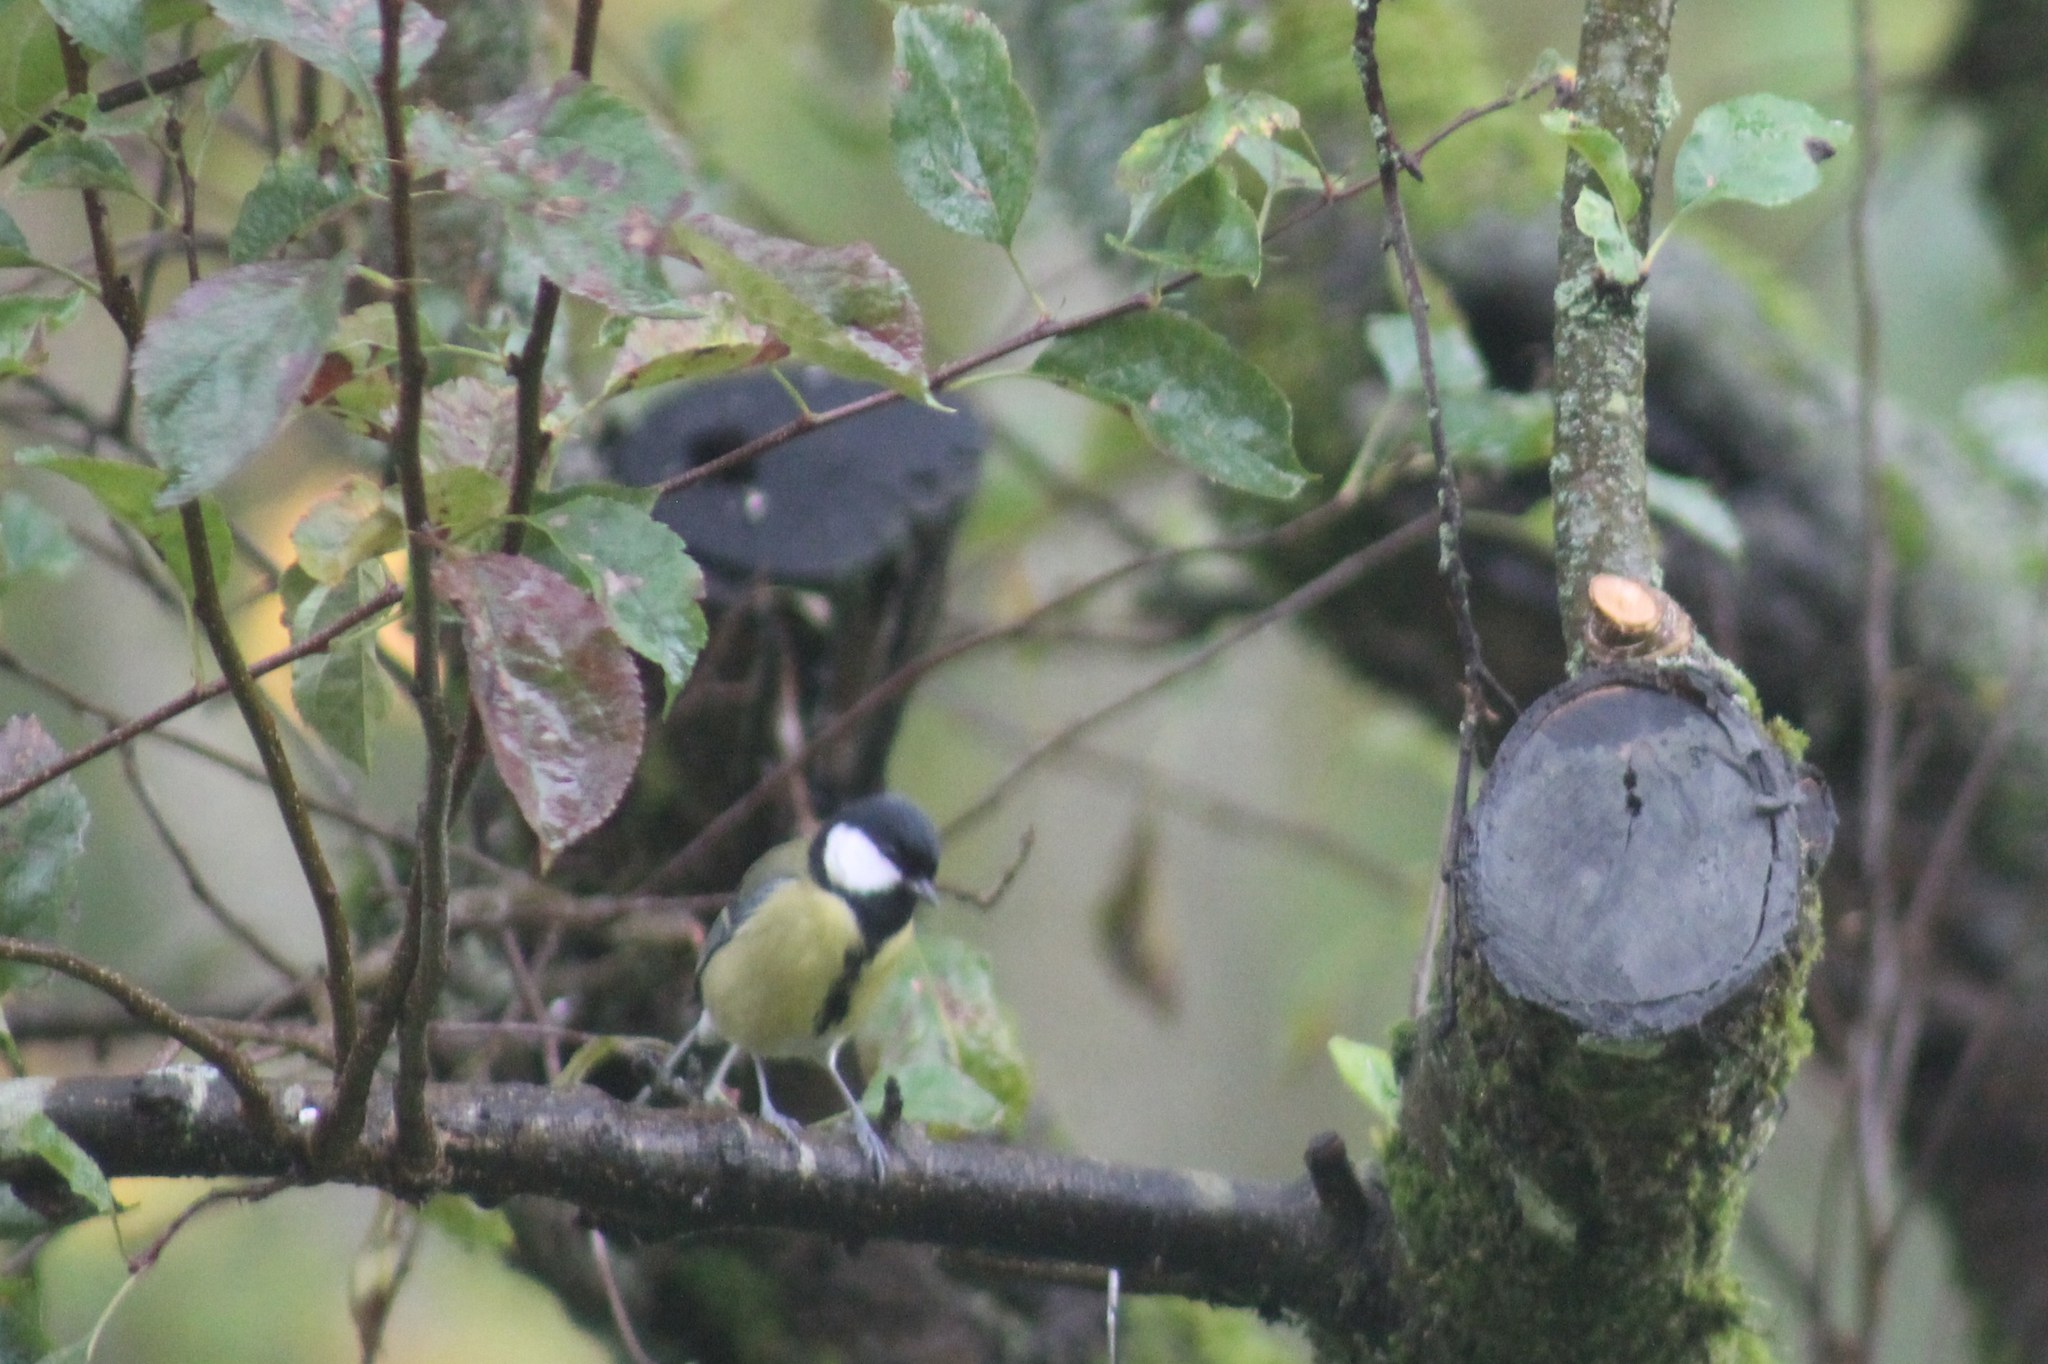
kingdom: Animalia
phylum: Chordata
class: Aves
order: Passeriformes
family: Paridae
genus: Parus
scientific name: Parus major
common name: Great tit
